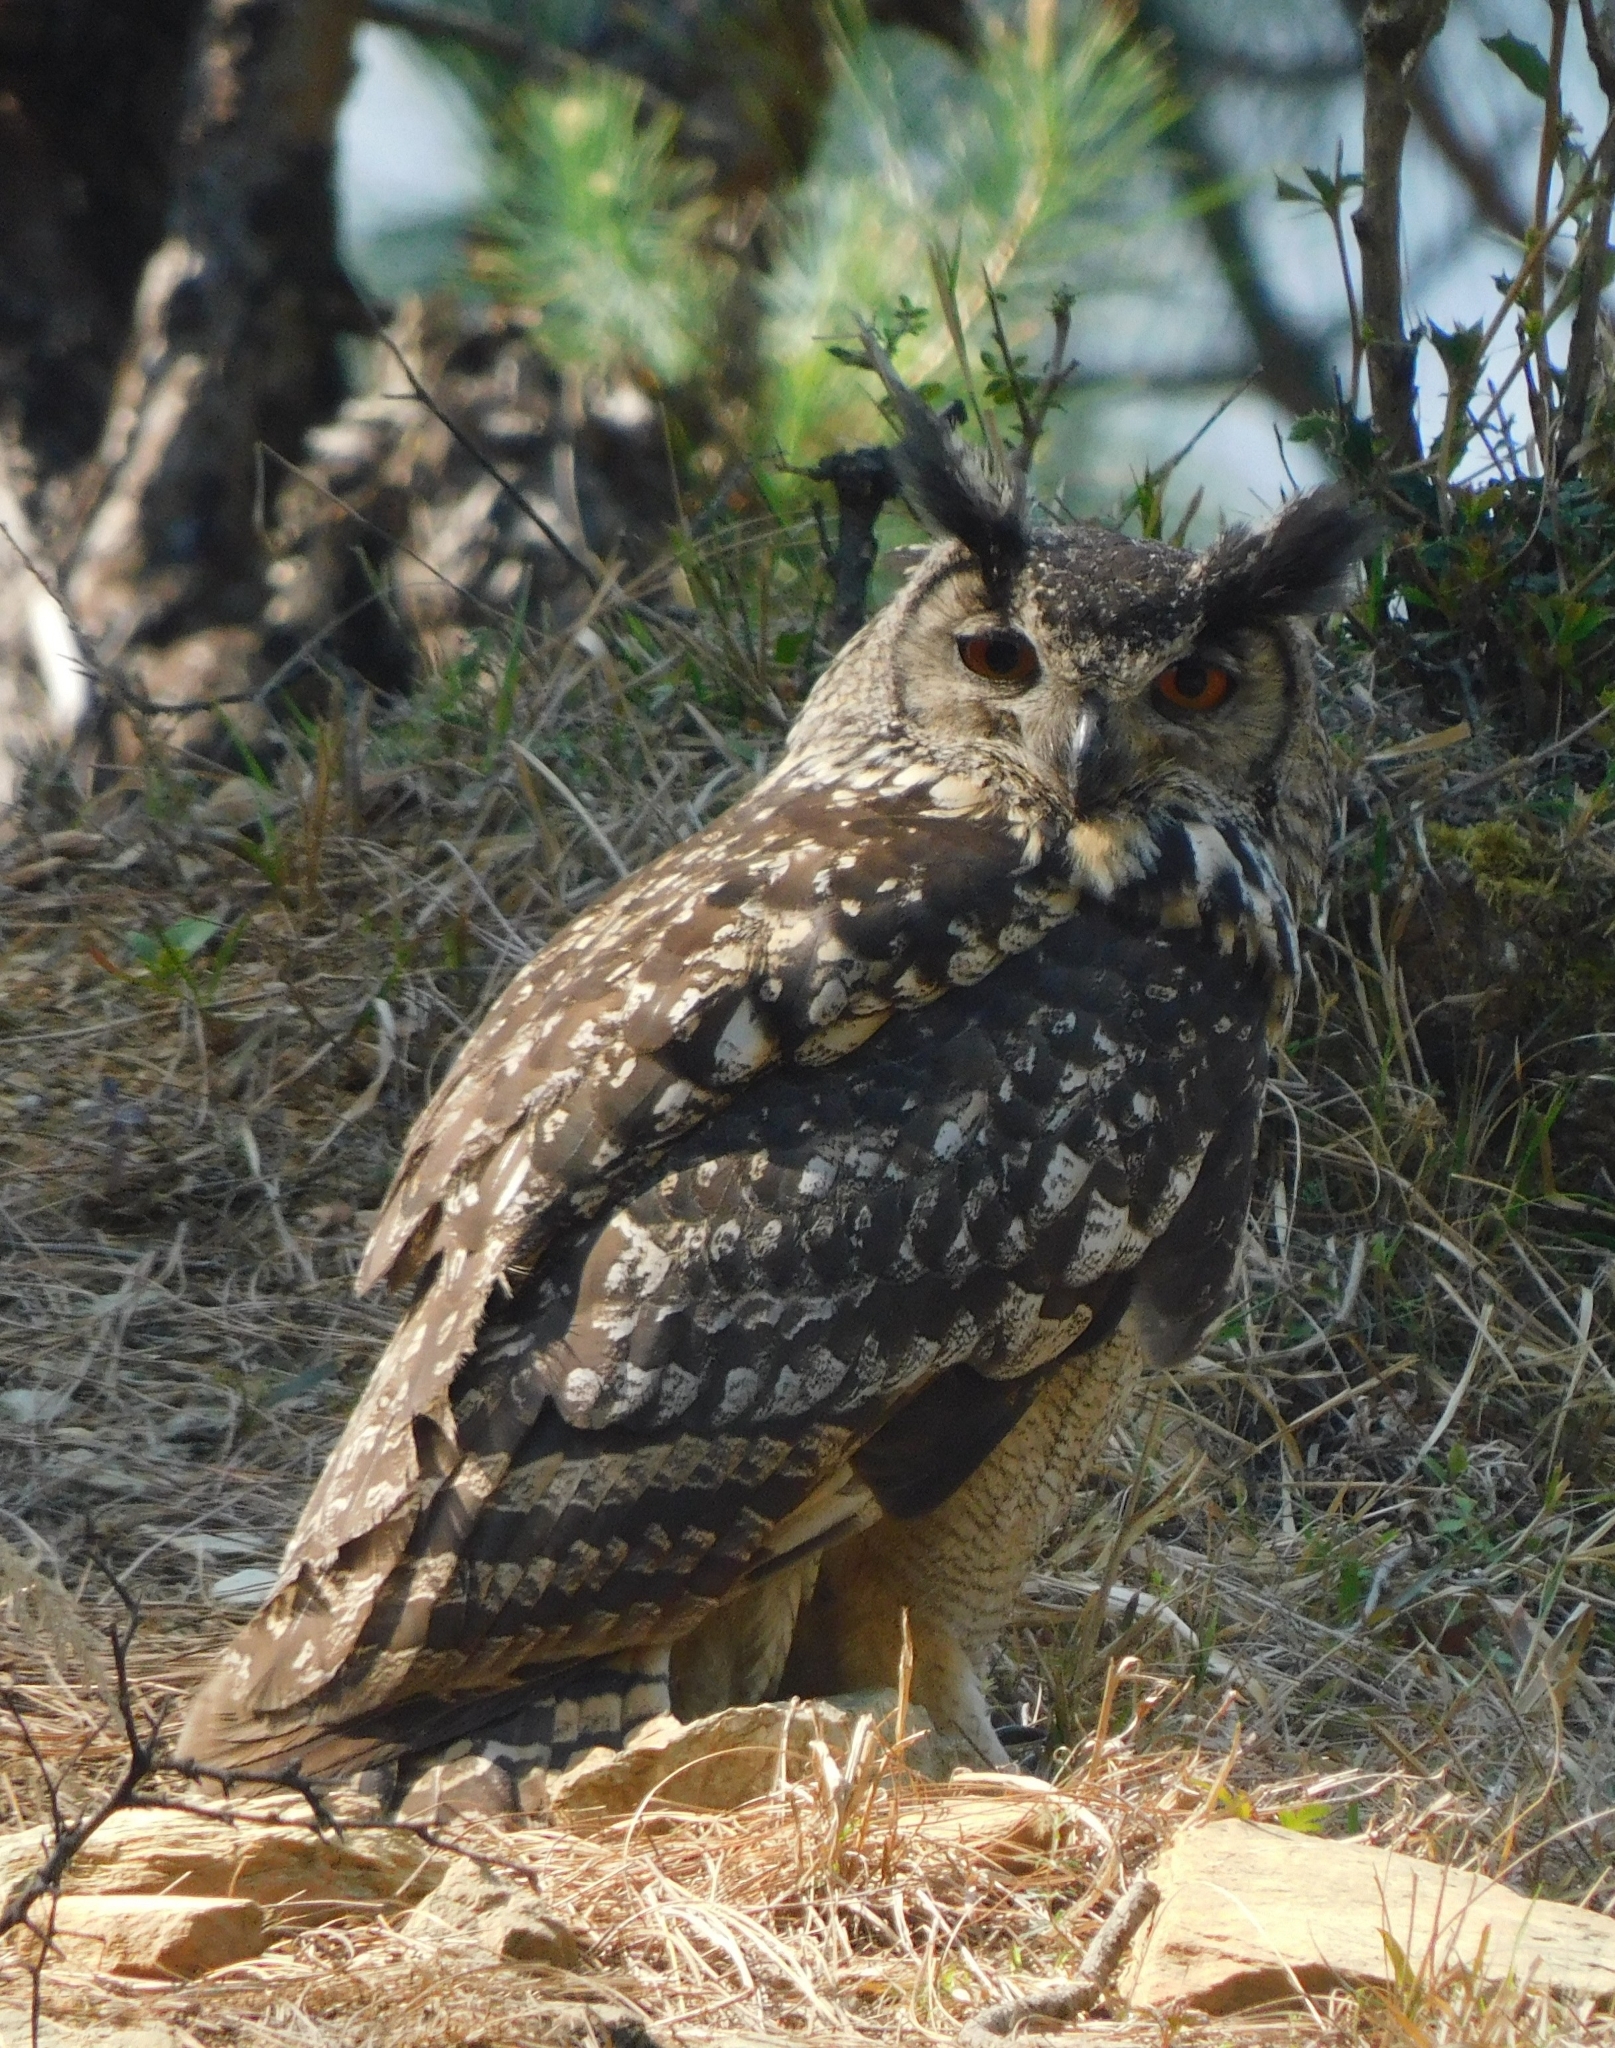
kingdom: Animalia
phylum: Chordata
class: Aves
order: Strigiformes
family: Strigidae
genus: Bubo
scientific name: Bubo bengalensis
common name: Indian eagle-owl
